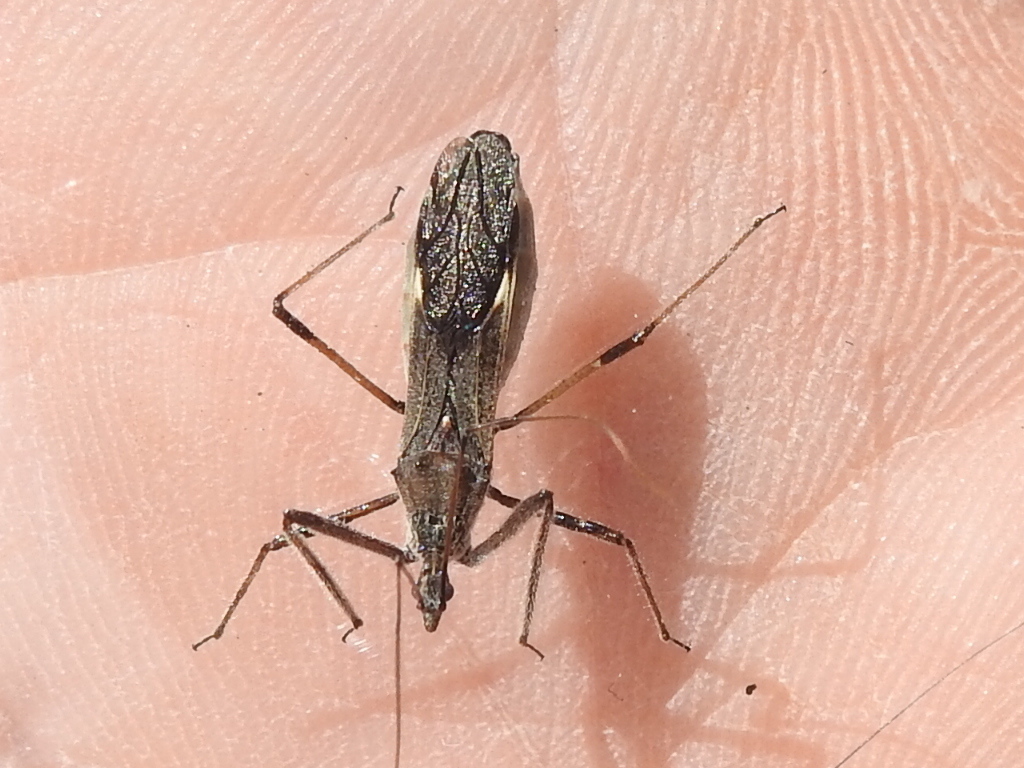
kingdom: Animalia
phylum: Arthropoda
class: Insecta
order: Hemiptera
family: Reduviidae
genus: Zelus
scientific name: Zelus tetracanthus
